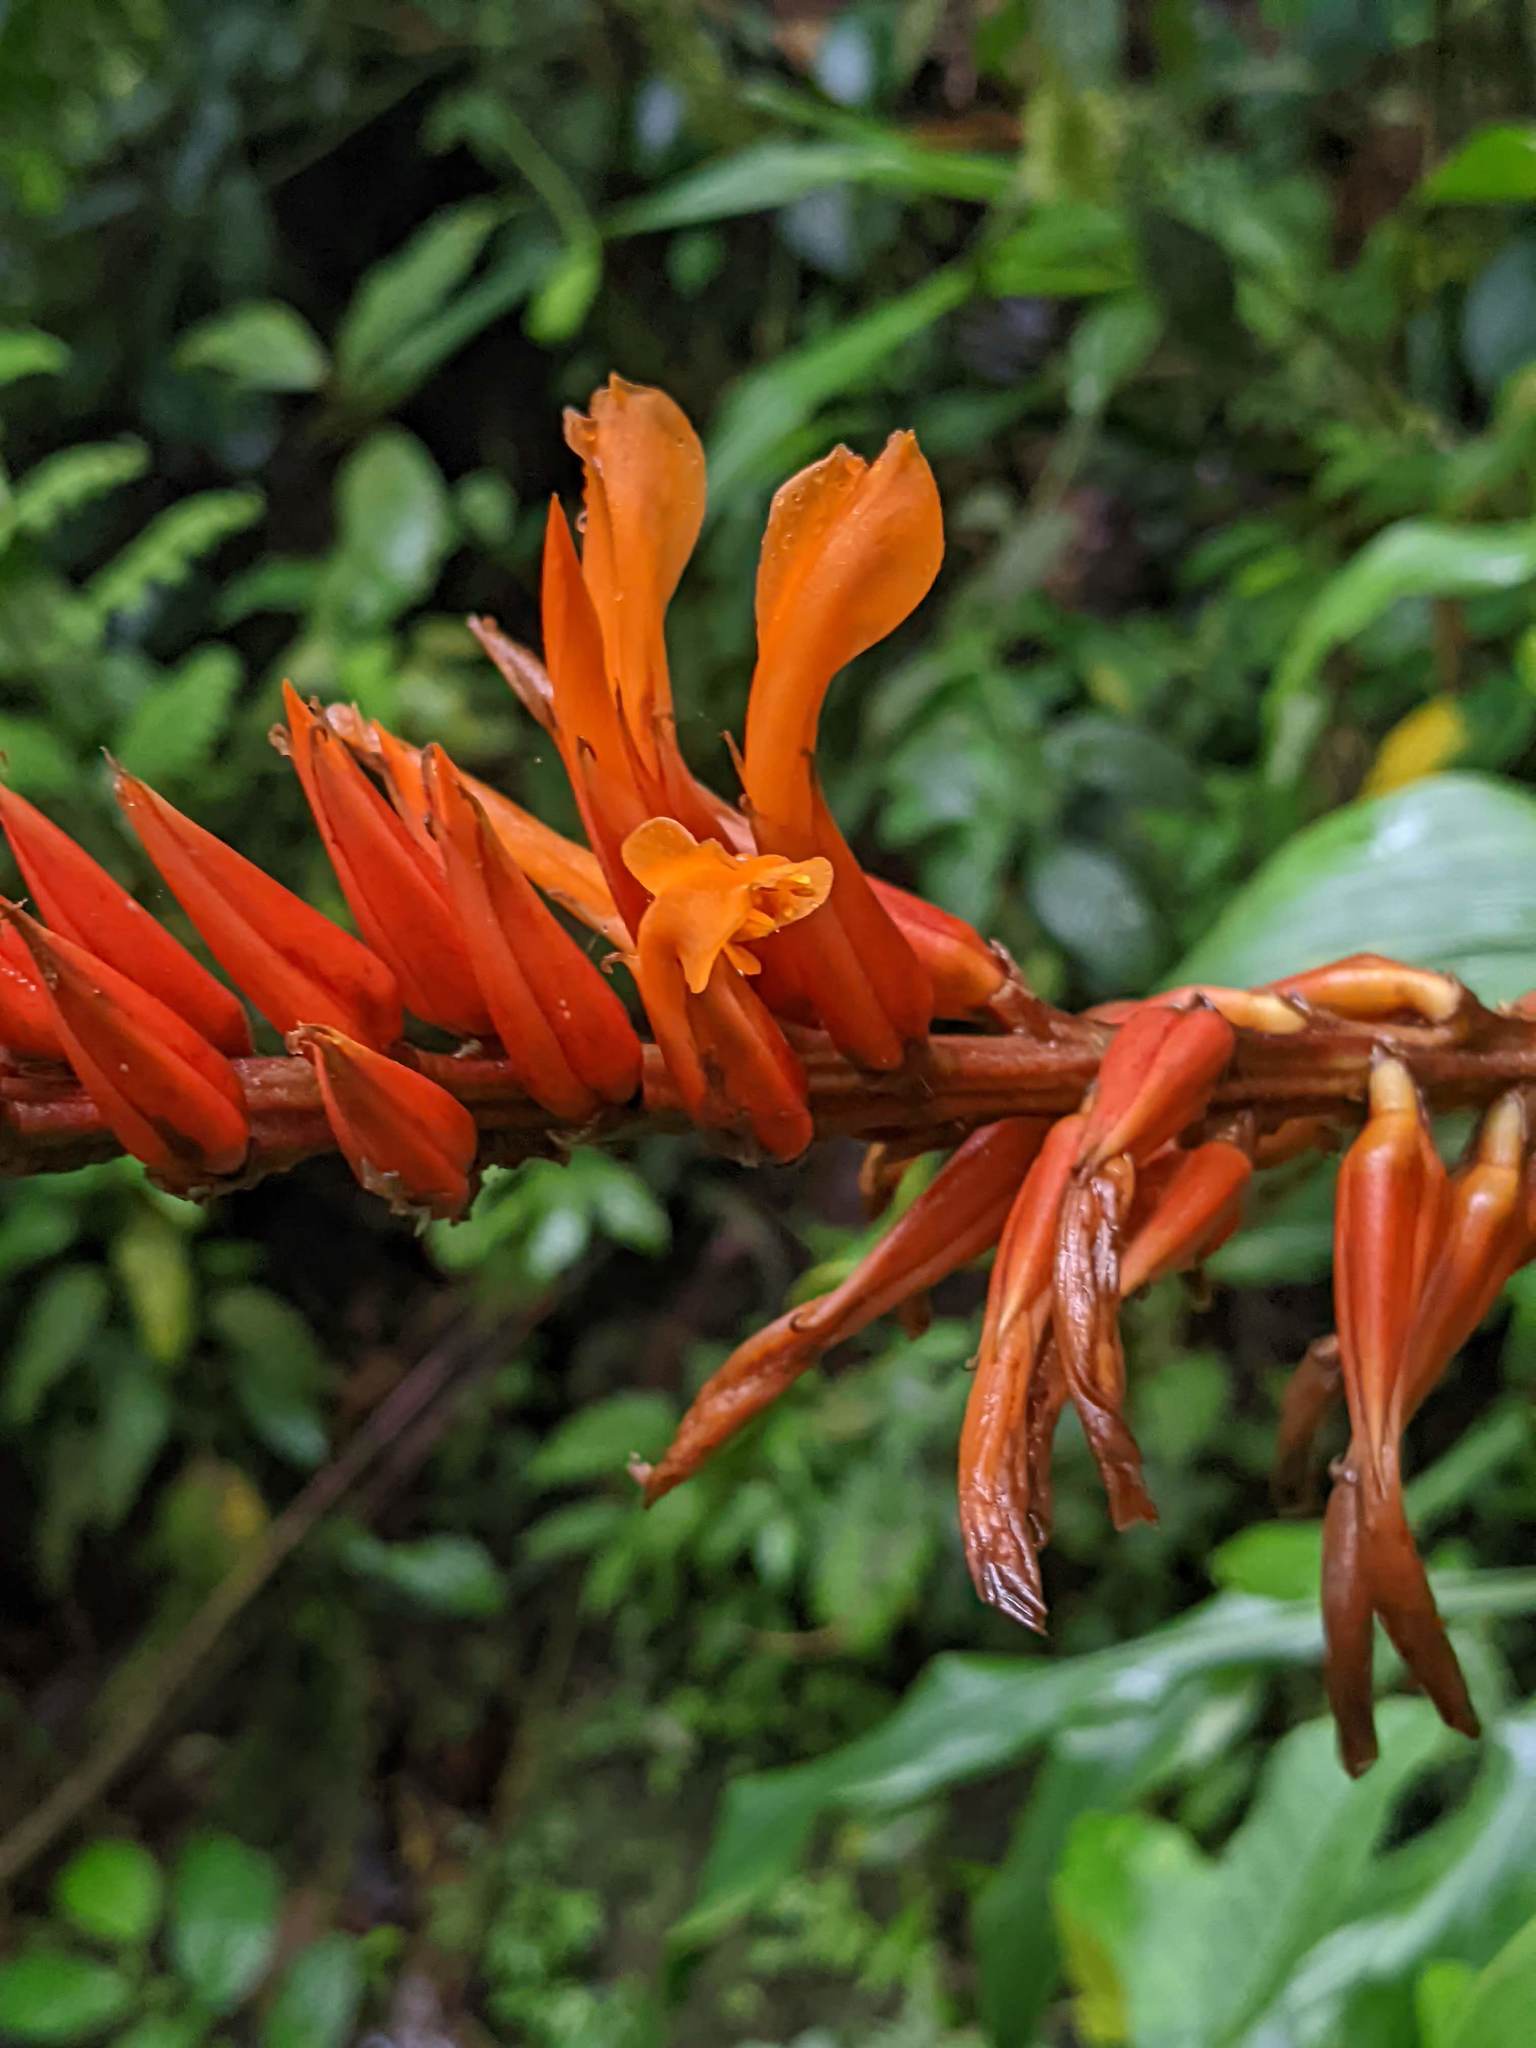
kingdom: Plantae
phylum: Tracheophyta
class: Liliopsida
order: Poales
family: Bromeliaceae
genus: Pitcairnia
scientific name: Pitcairnia brittoniana
